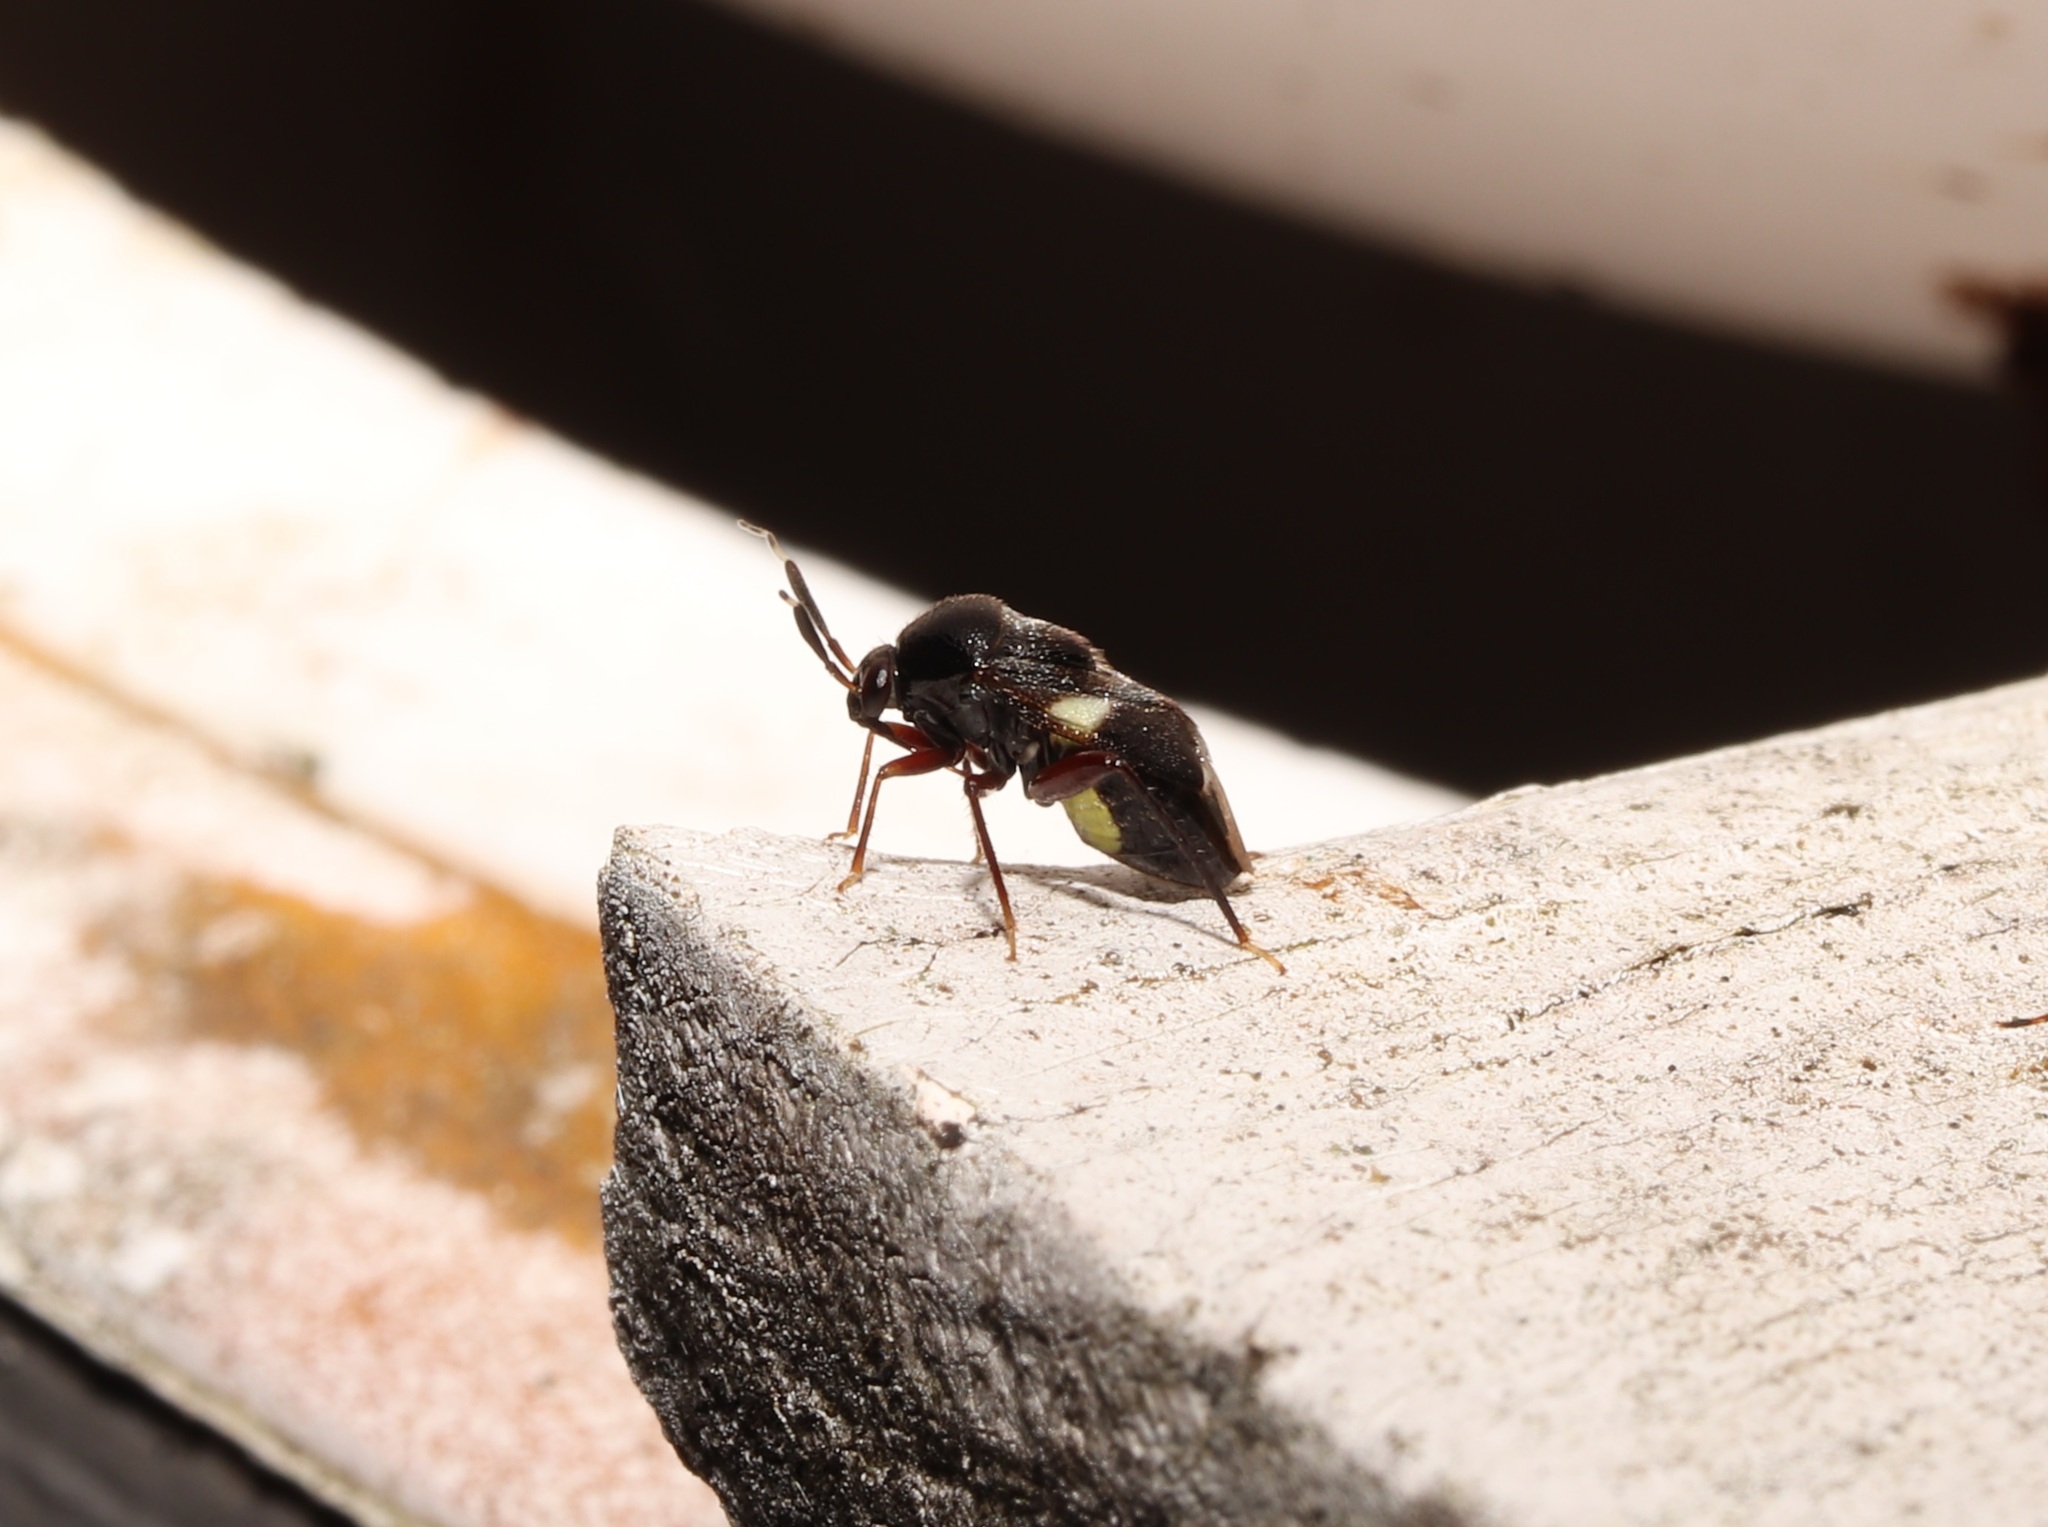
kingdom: Animalia
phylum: Arthropoda
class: Insecta
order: Hemiptera
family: Miridae
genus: Bertsa
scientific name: Bertsa lankana
